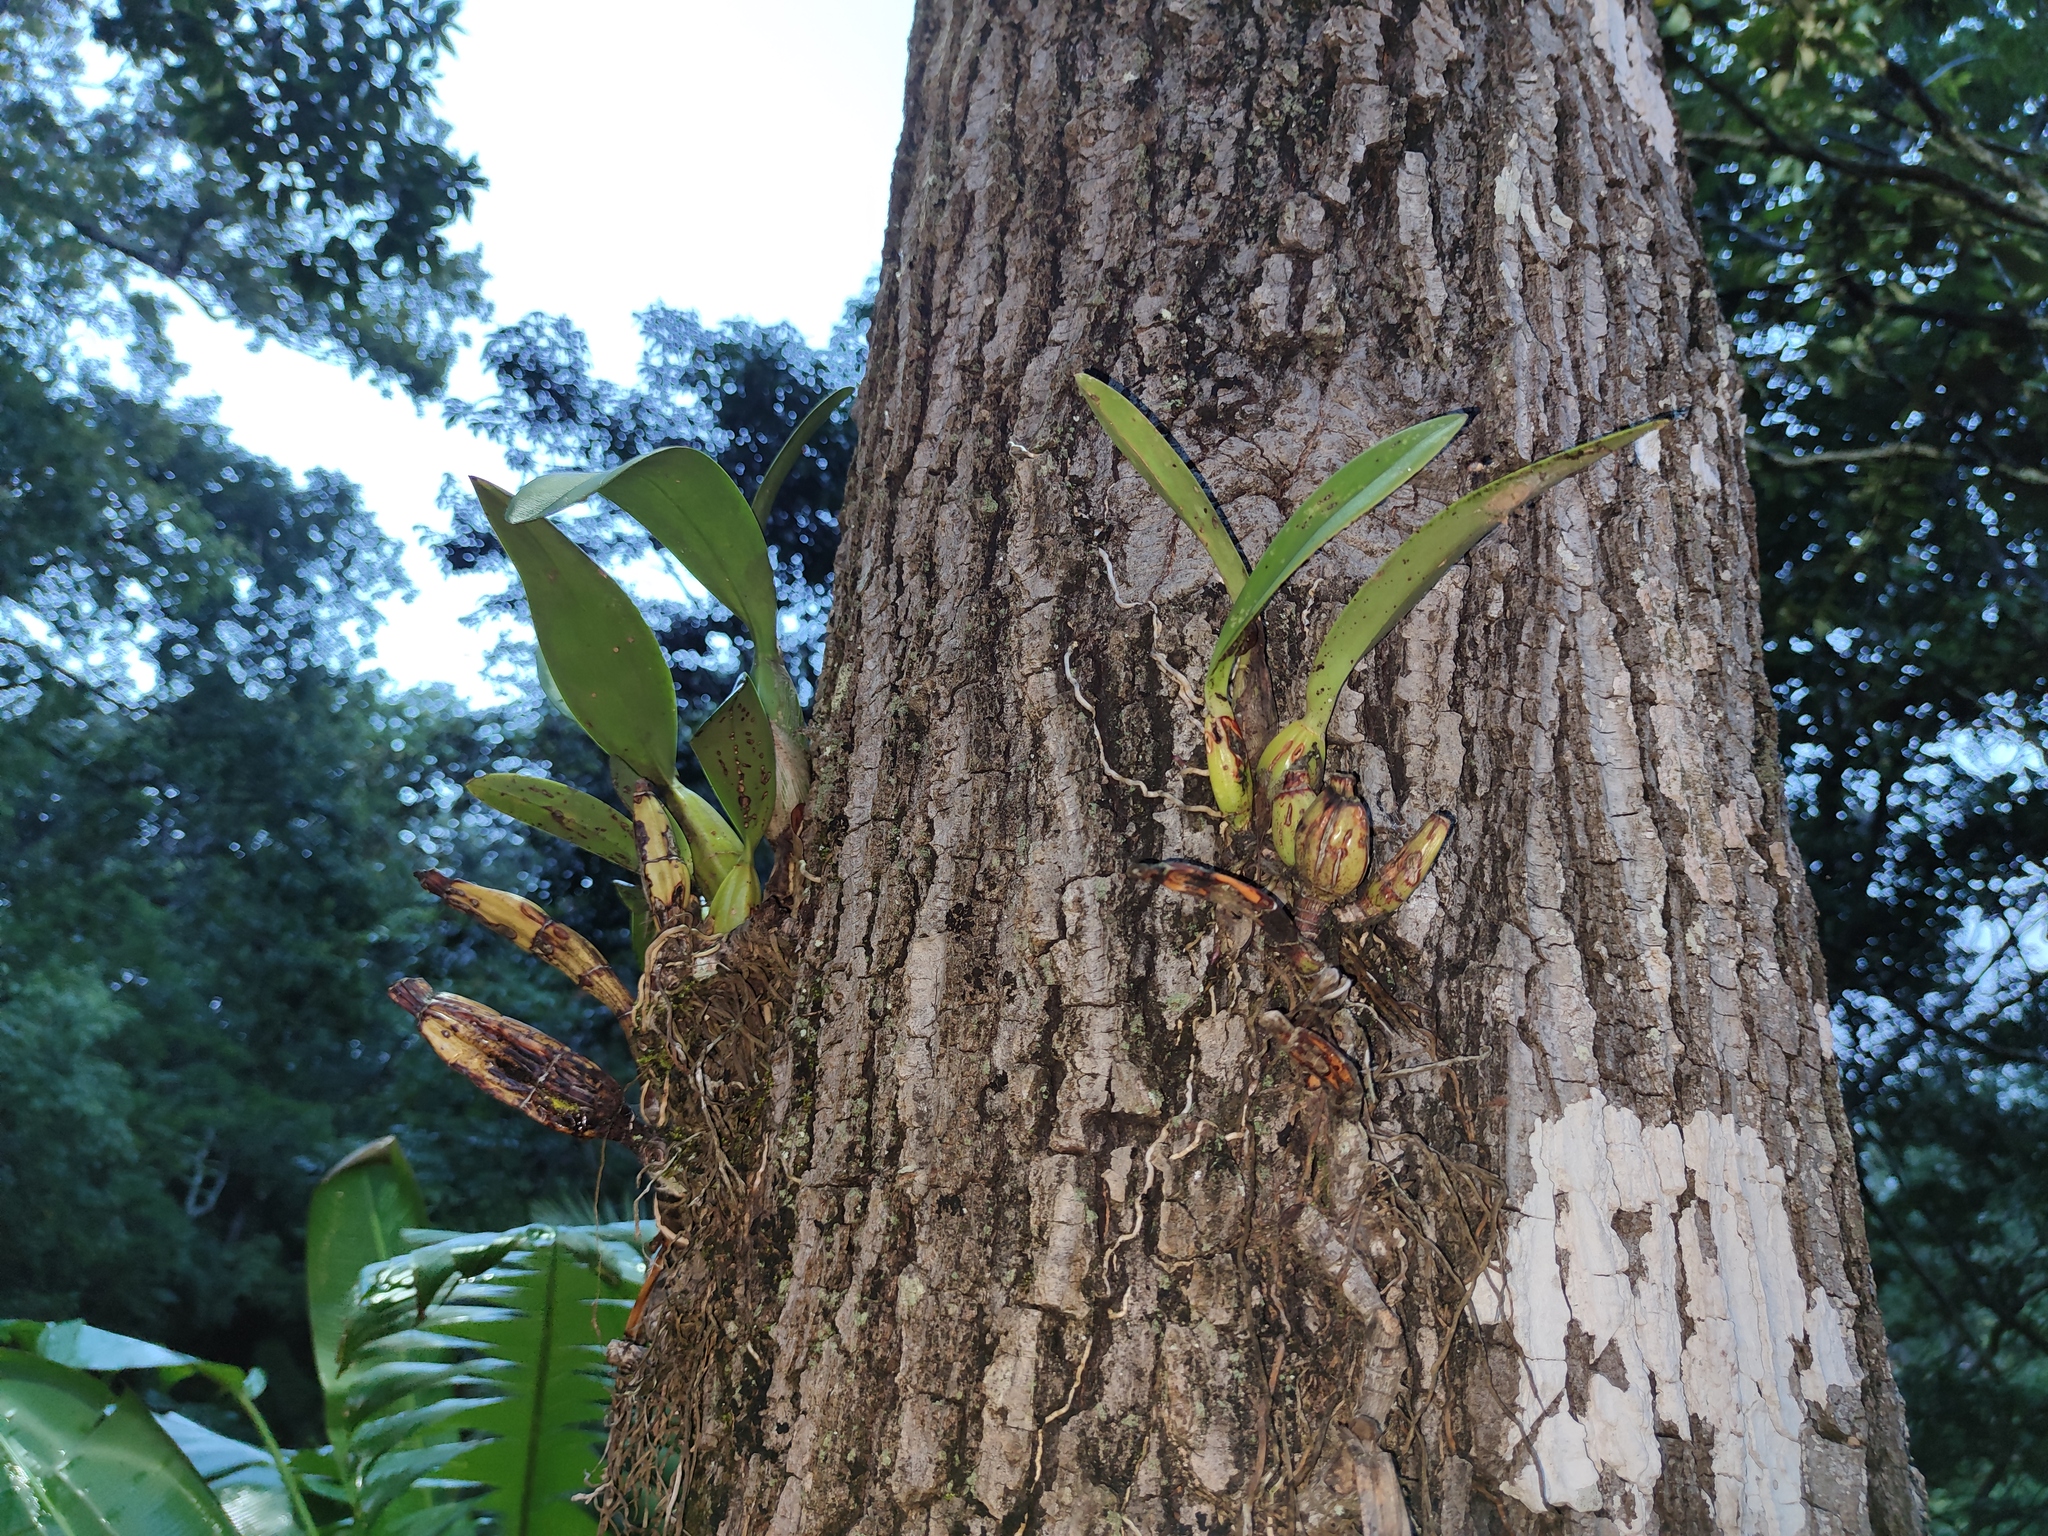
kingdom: Plantae
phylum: Tracheophyta
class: Liliopsida
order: Asparagales
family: Orchidaceae
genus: Laelia
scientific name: Laelia anceps
